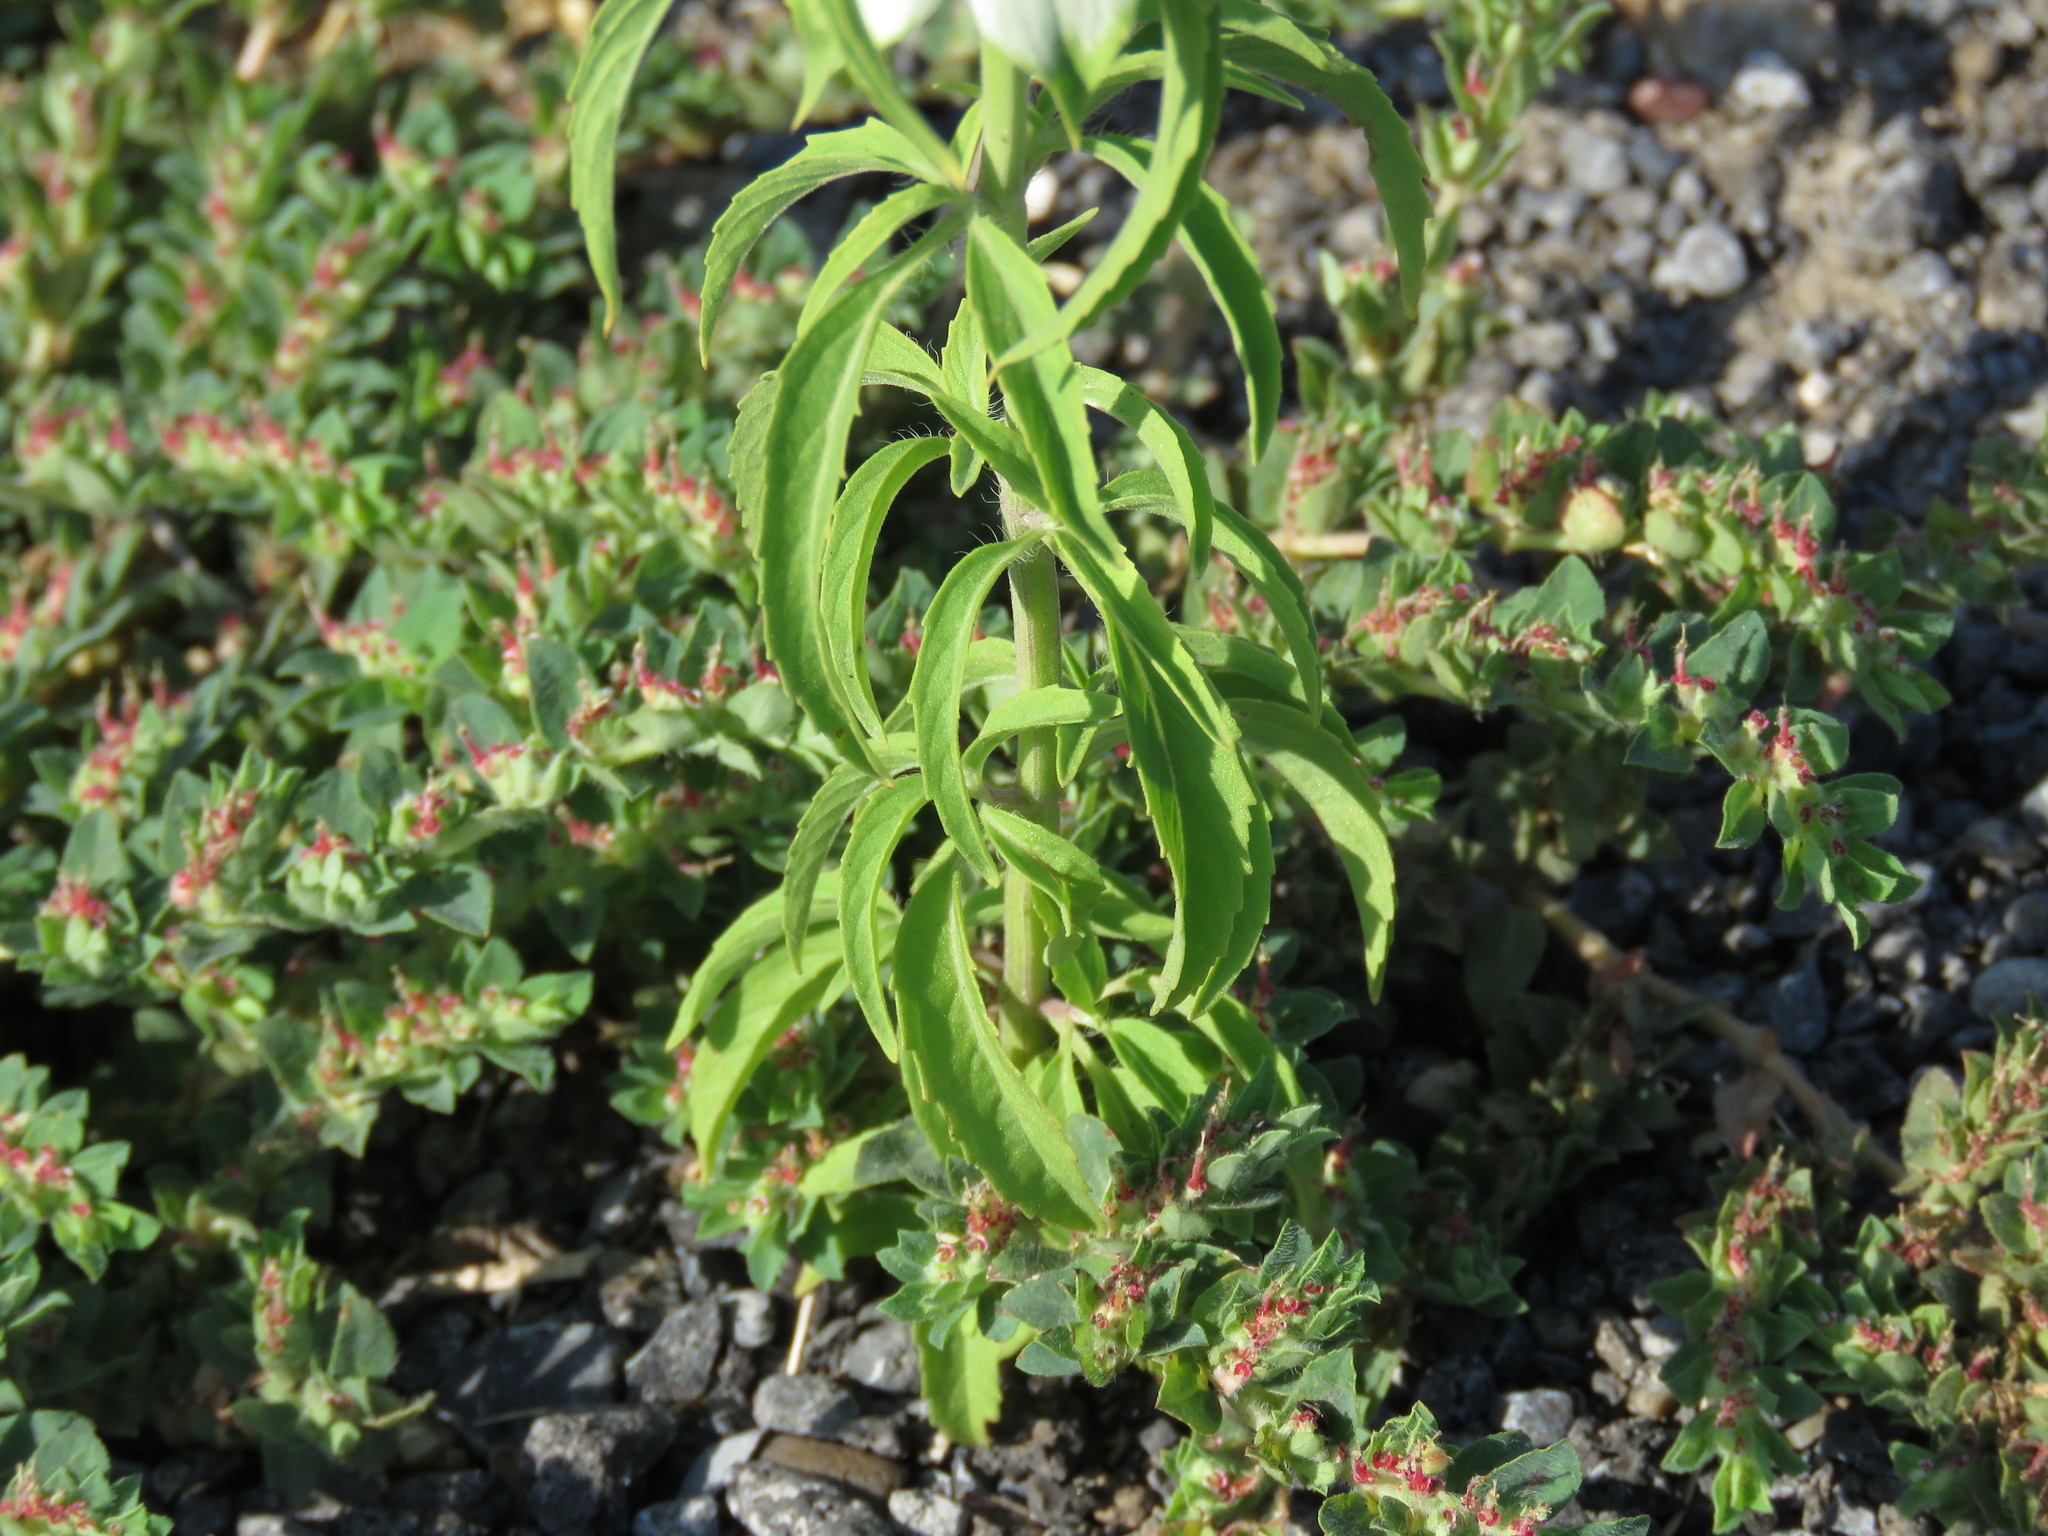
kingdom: Plantae
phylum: Tracheophyta
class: Magnoliopsida
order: Lamiales
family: Lamiaceae
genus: Monarda
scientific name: Monarda punctata
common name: Dotted monarda
